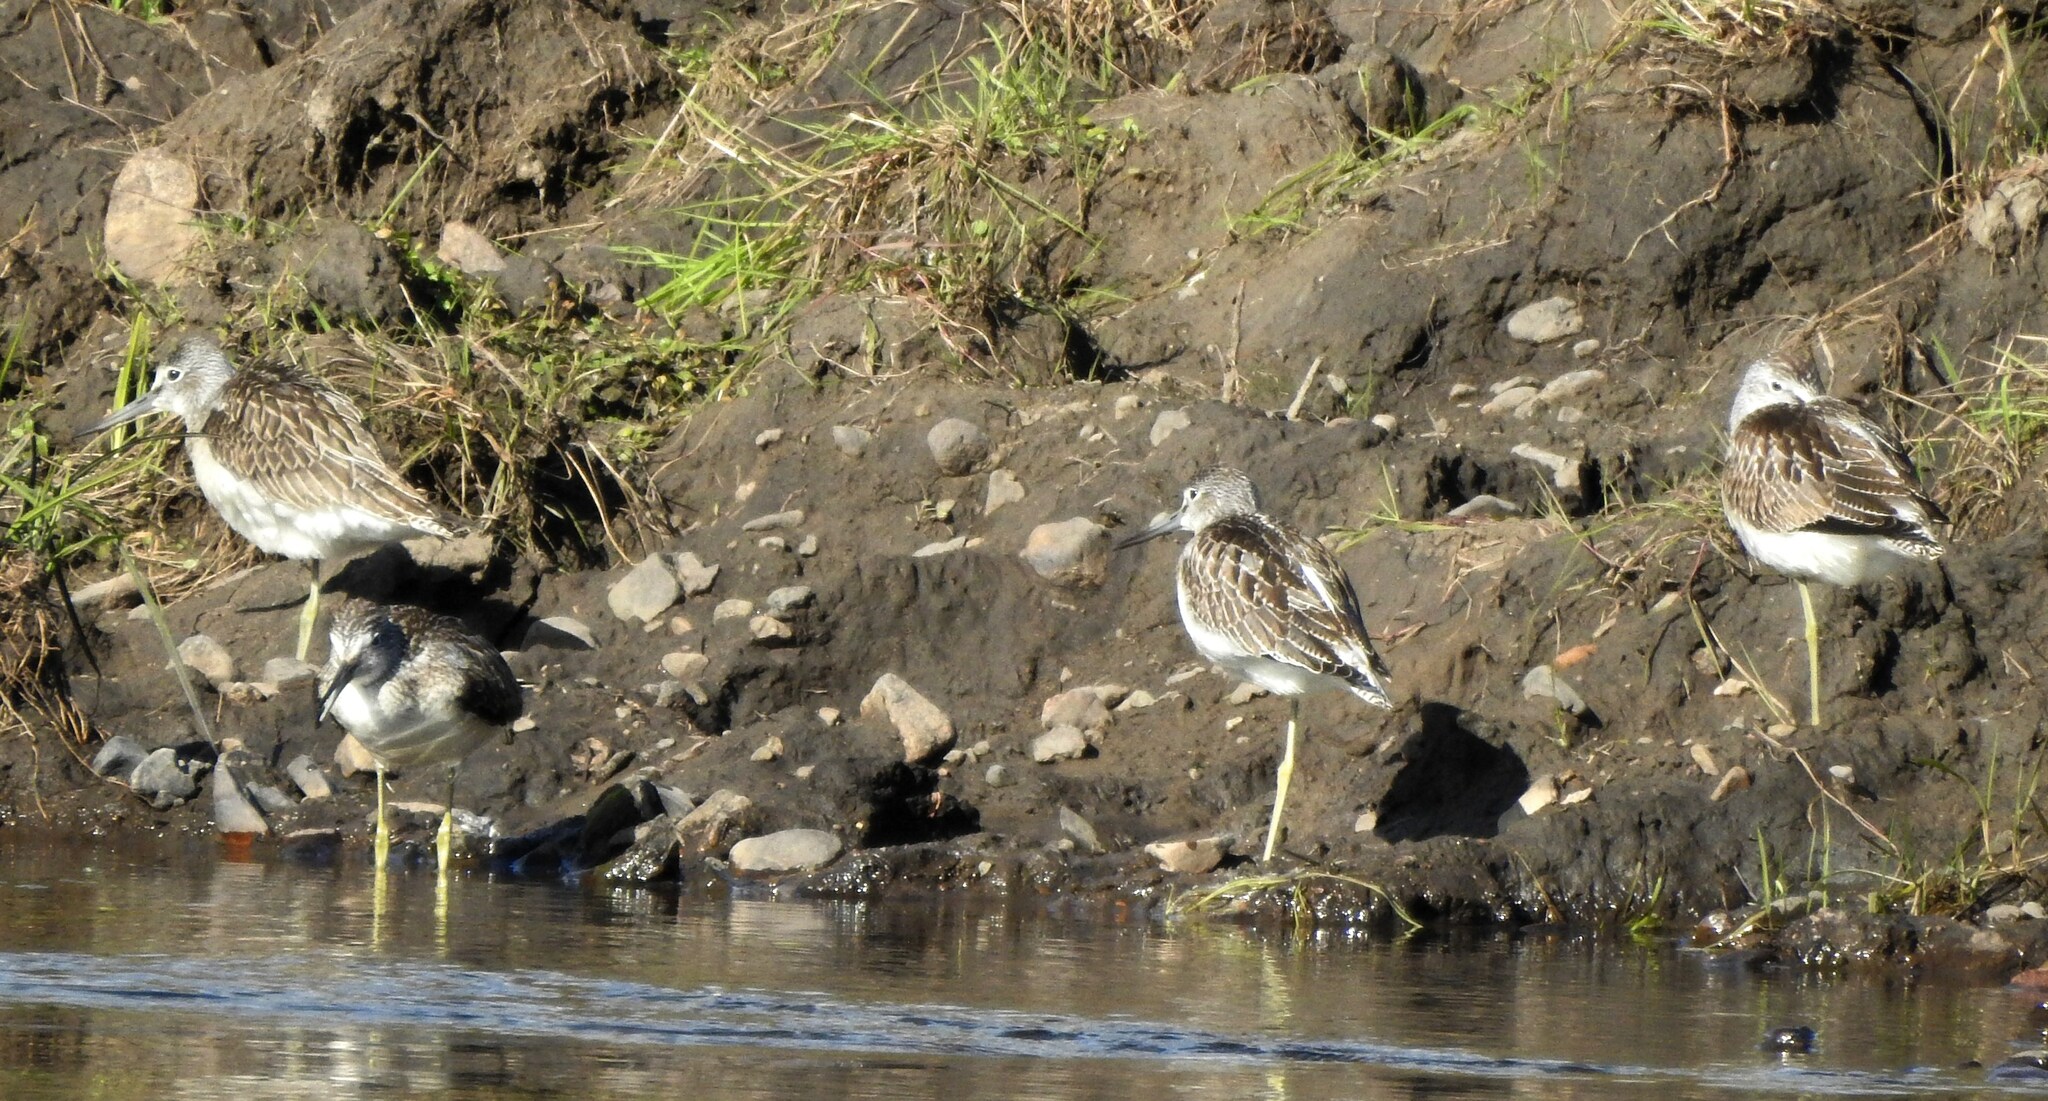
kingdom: Animalia
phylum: Chordata
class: Aves
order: Charadriiformes
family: Scolopacidae
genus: Tringa
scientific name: Tringa nebularia
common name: Common greenshank
